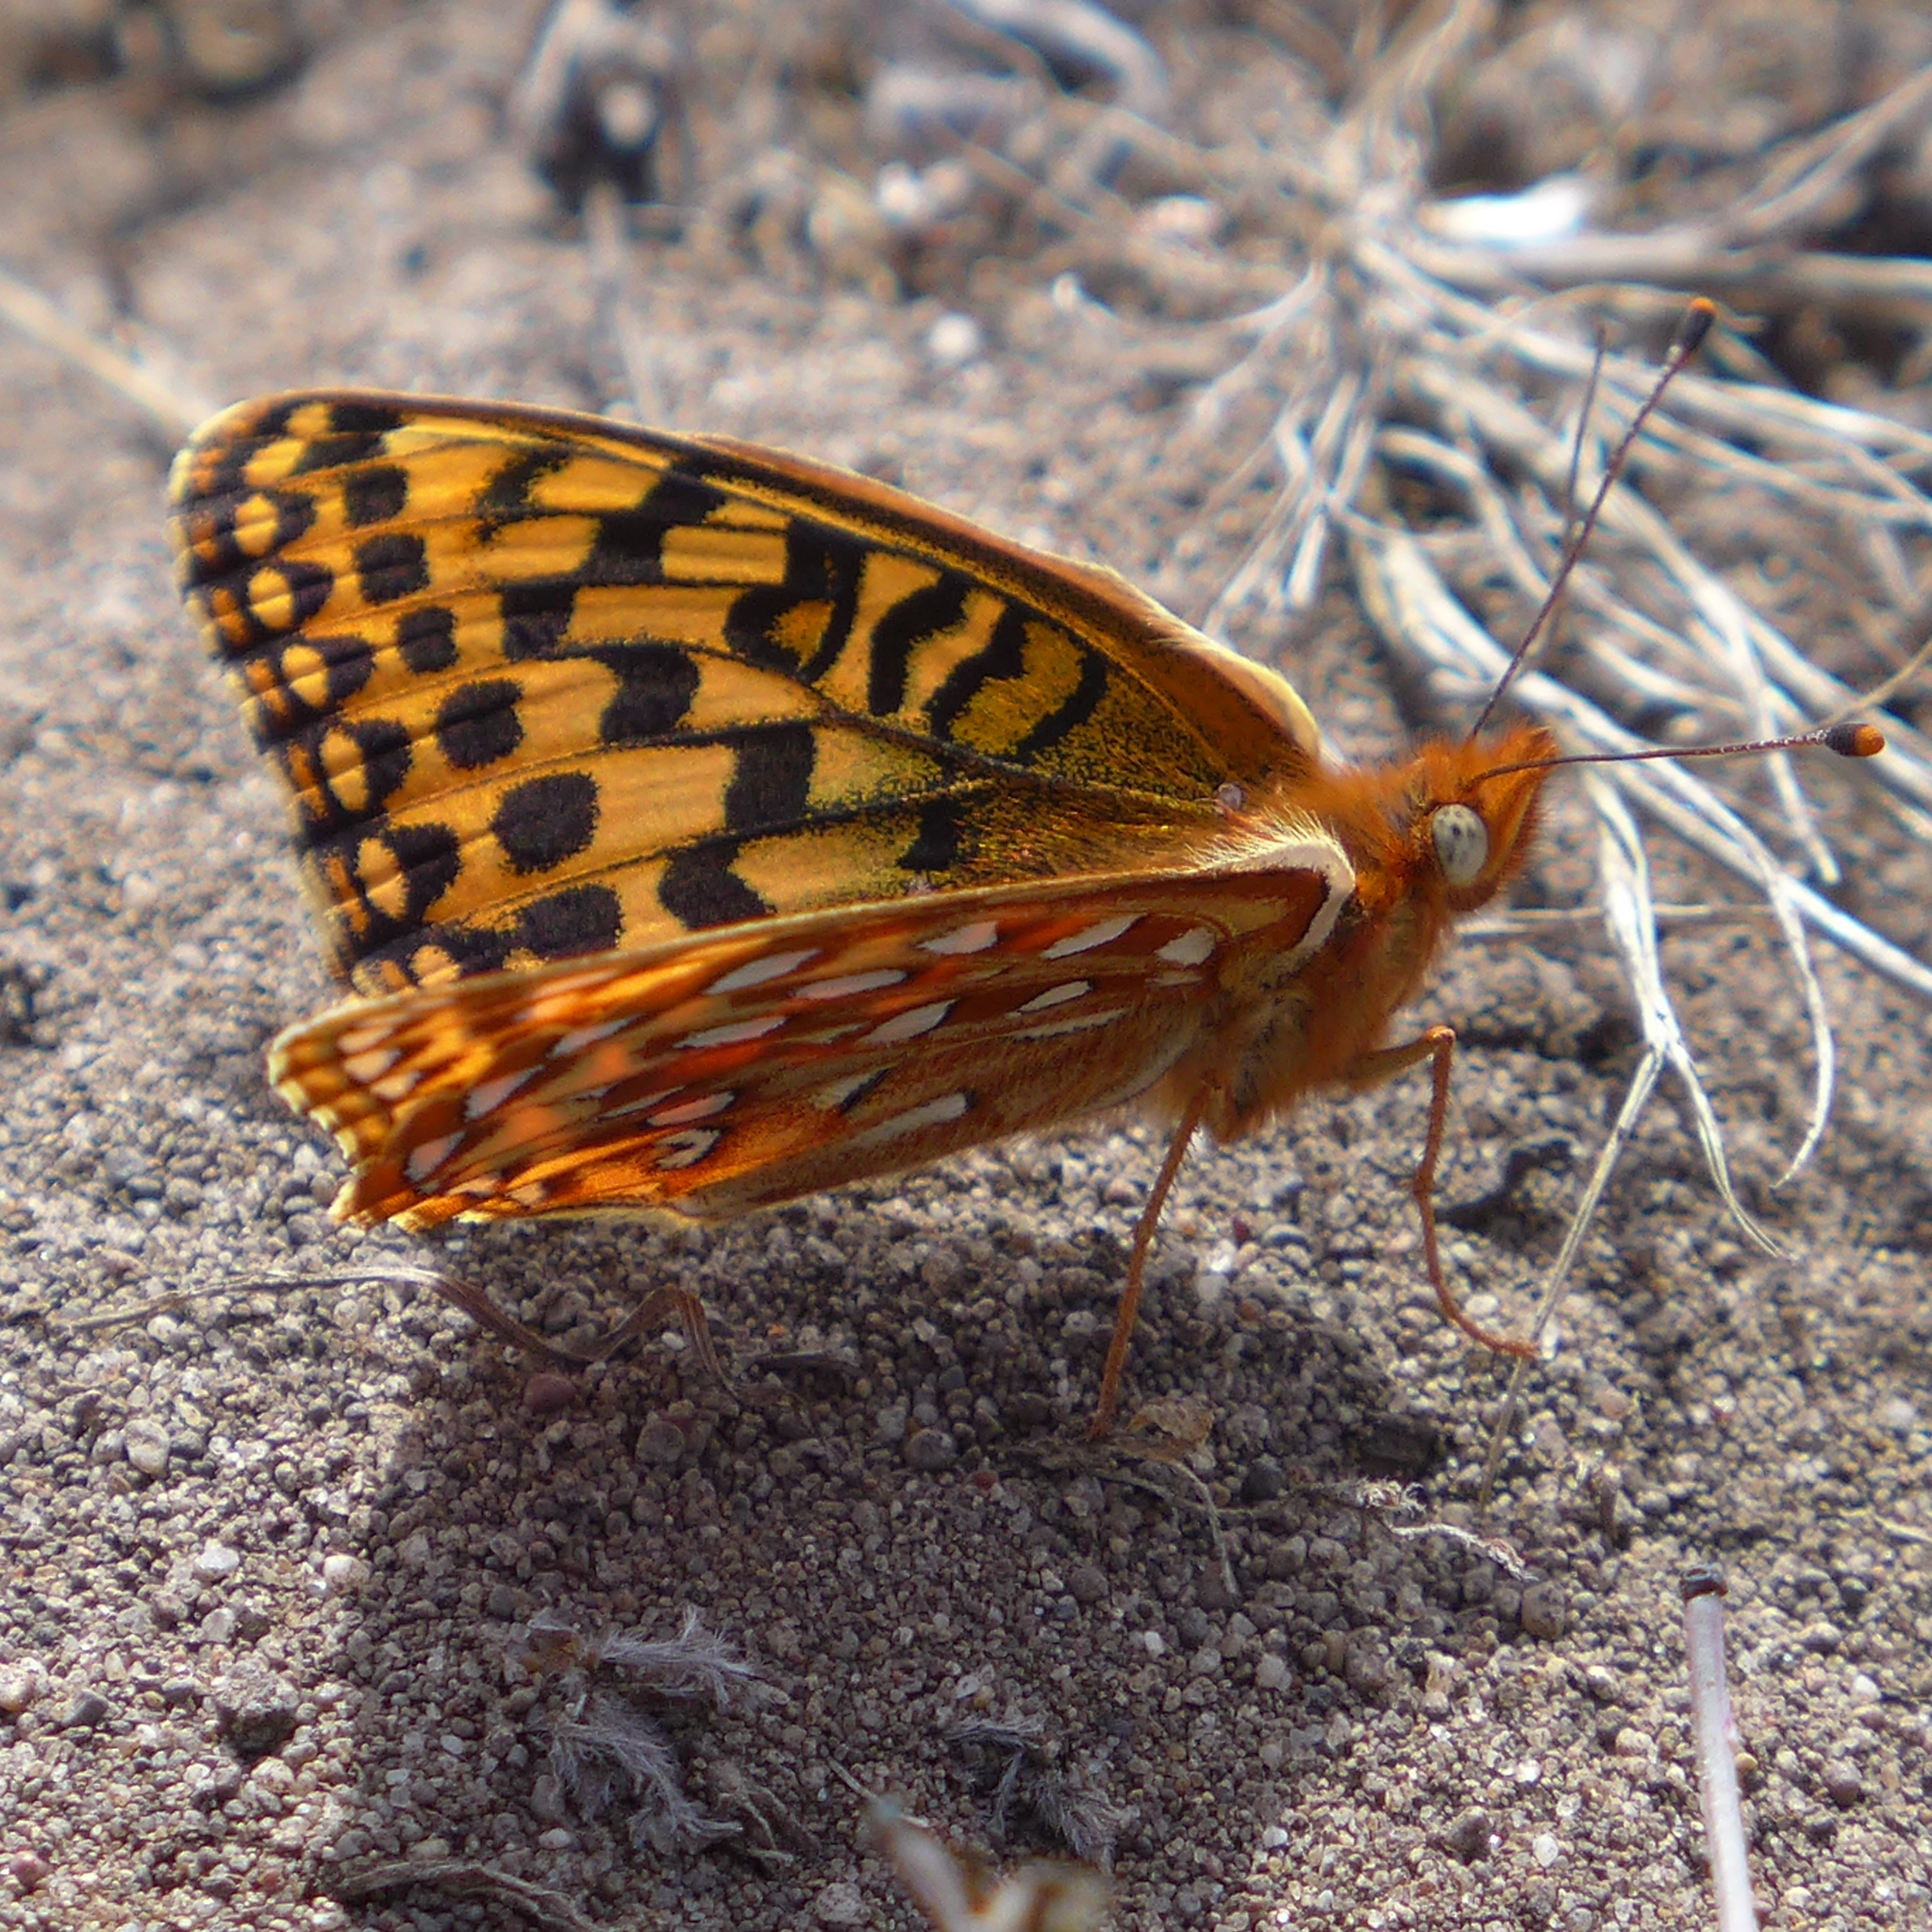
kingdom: Animalia
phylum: Arthropoda
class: Insecta
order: Lepidoptera
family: Nymphalidae
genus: Speyeria
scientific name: Speyeria zerene
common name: Zerene fritillary
